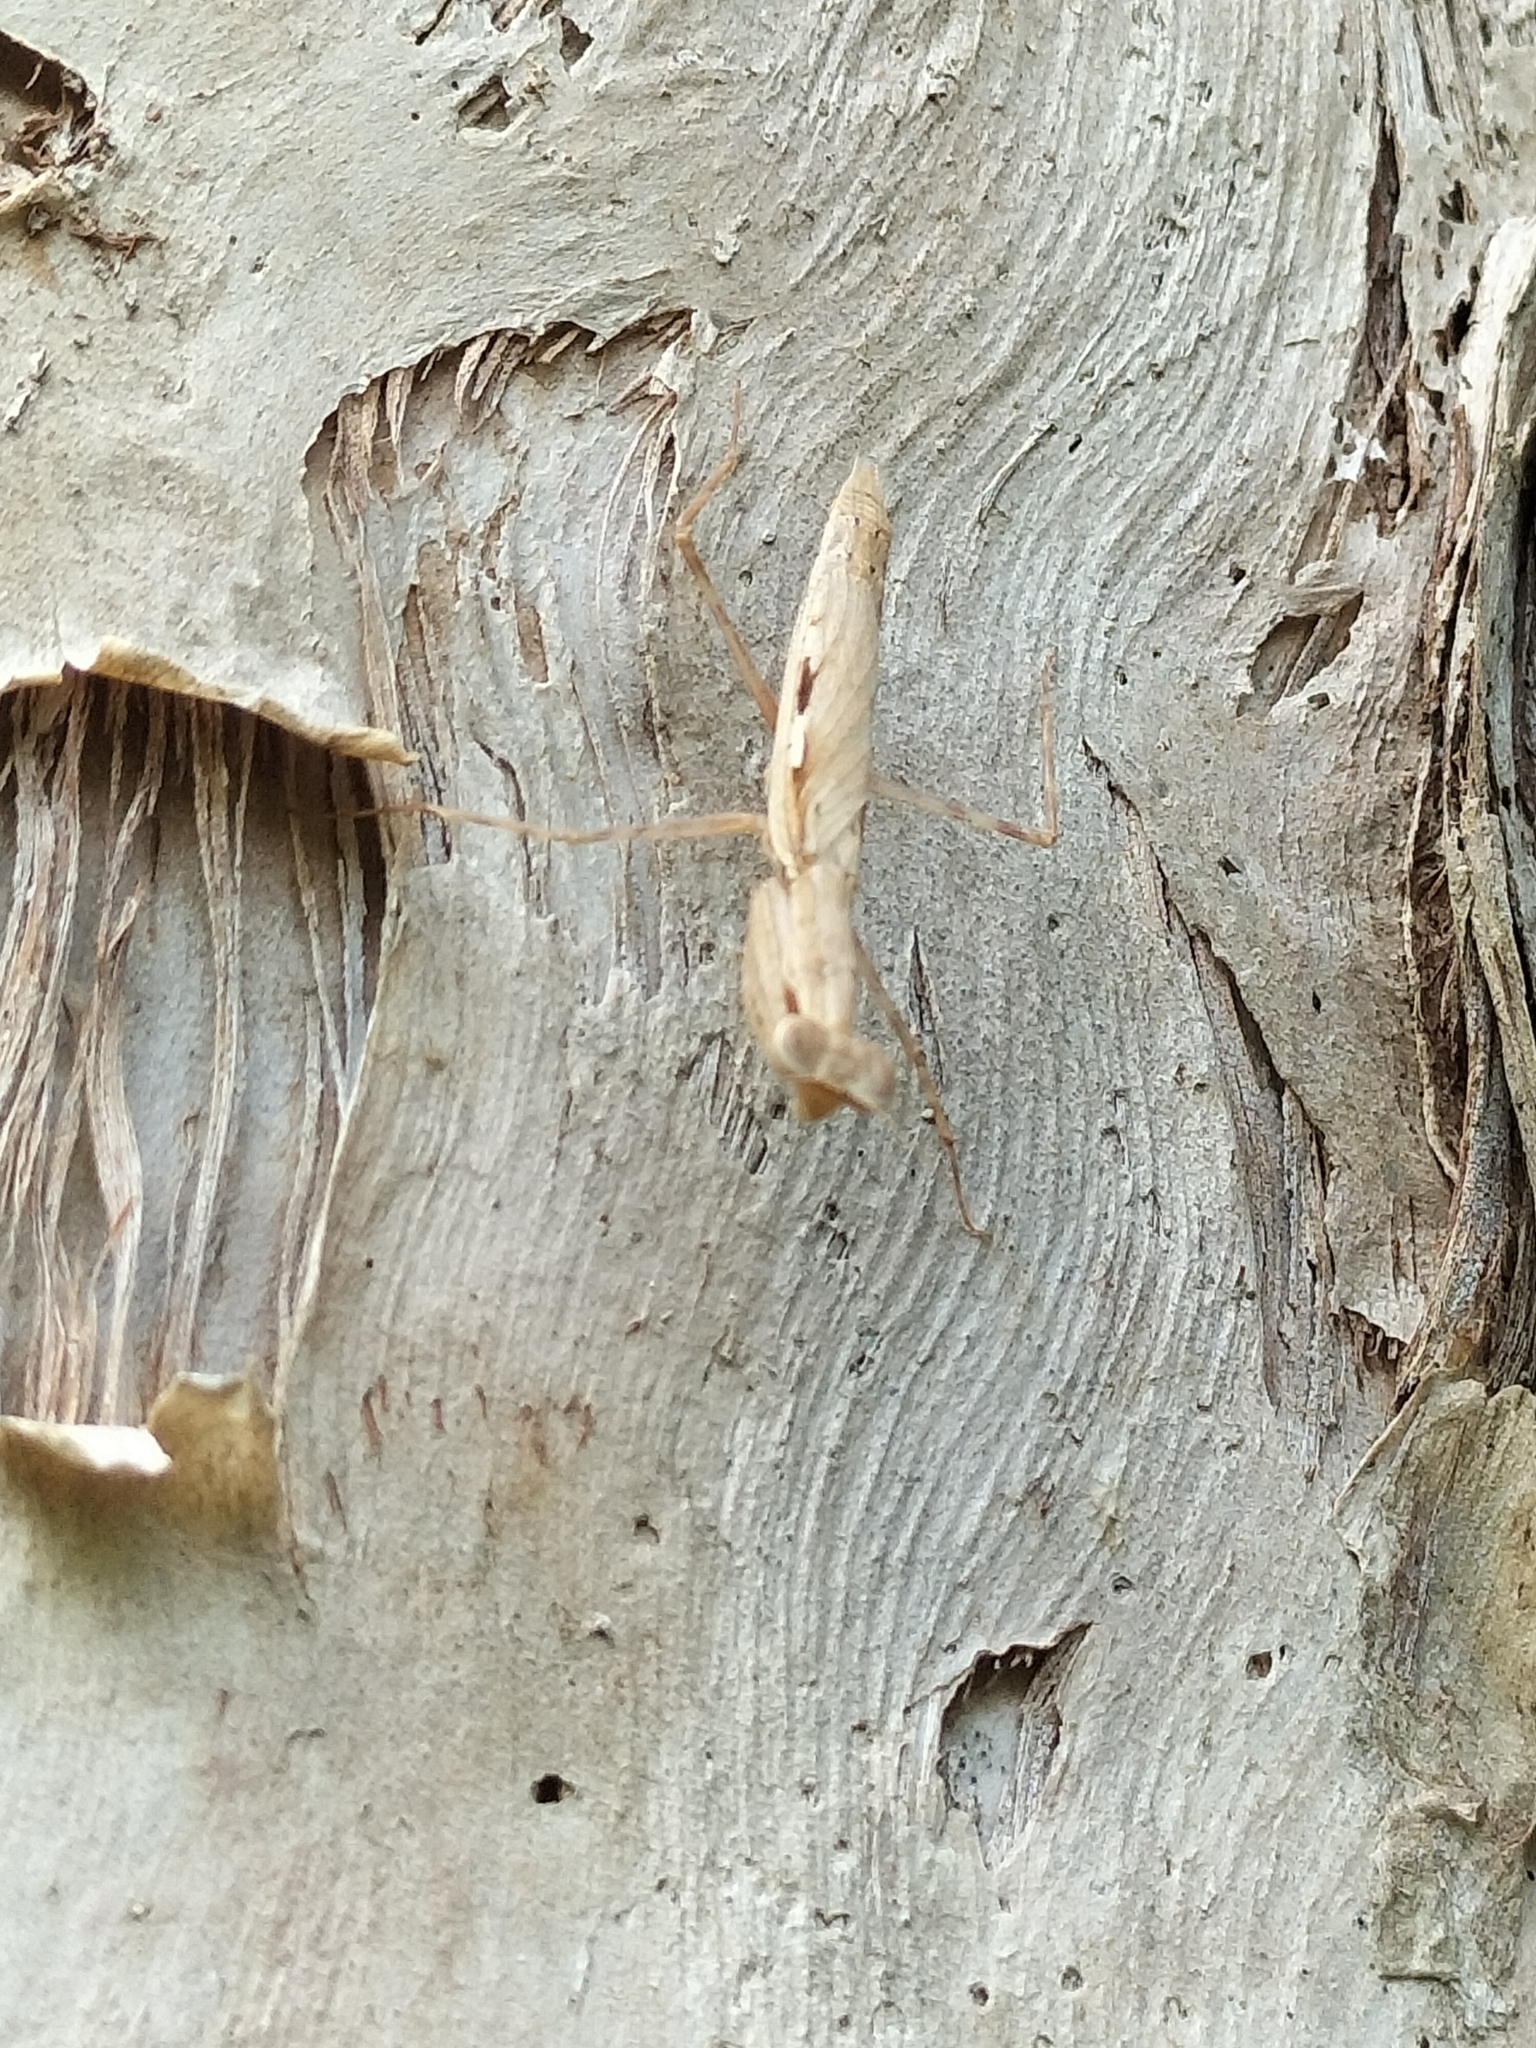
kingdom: Animalia
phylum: Arthropoda
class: Insecta
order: Mantodea
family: Nanomantidae
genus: Ima
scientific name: Ima fusca
